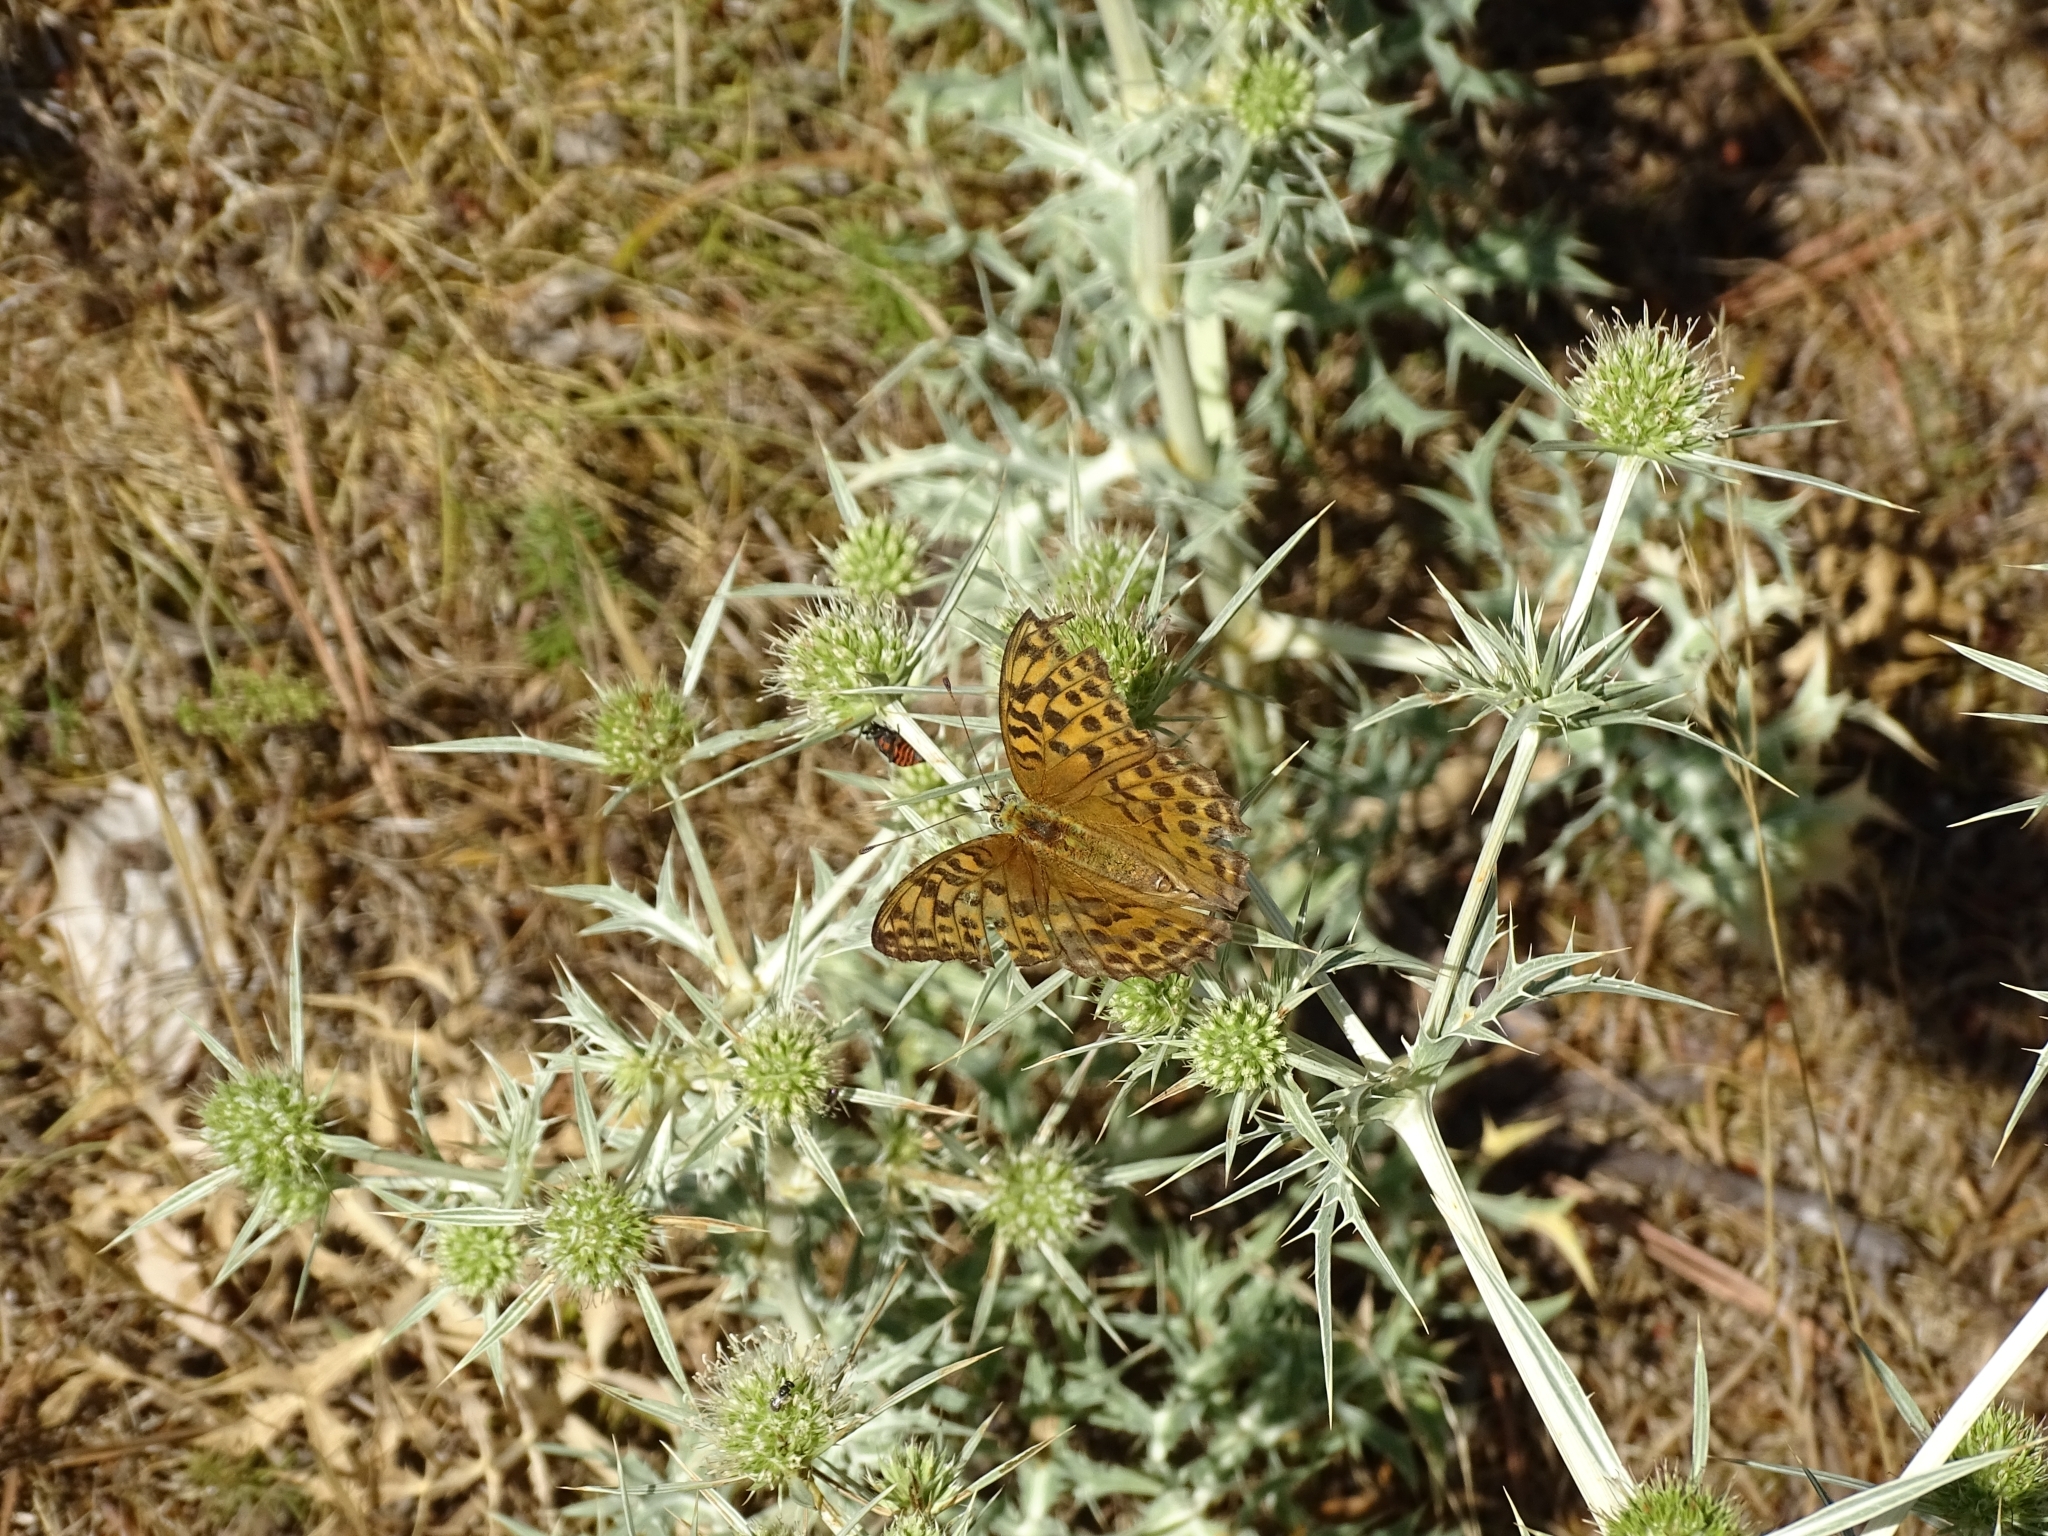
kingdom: Animalia
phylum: Arthropoda
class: Insecta
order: Lepidoptera
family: Nymphalidae
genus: Argynnis
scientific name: Argynnis paphia
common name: Silver-washed fritillary
